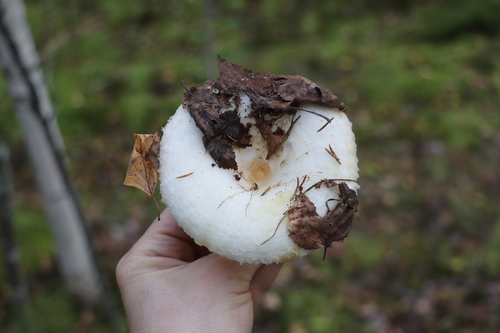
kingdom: Fungi
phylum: Basidiomycota
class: Agaricomycetes
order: Russulales
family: Russulaceae
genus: Lactarius
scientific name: Lactarius aquizonatus
